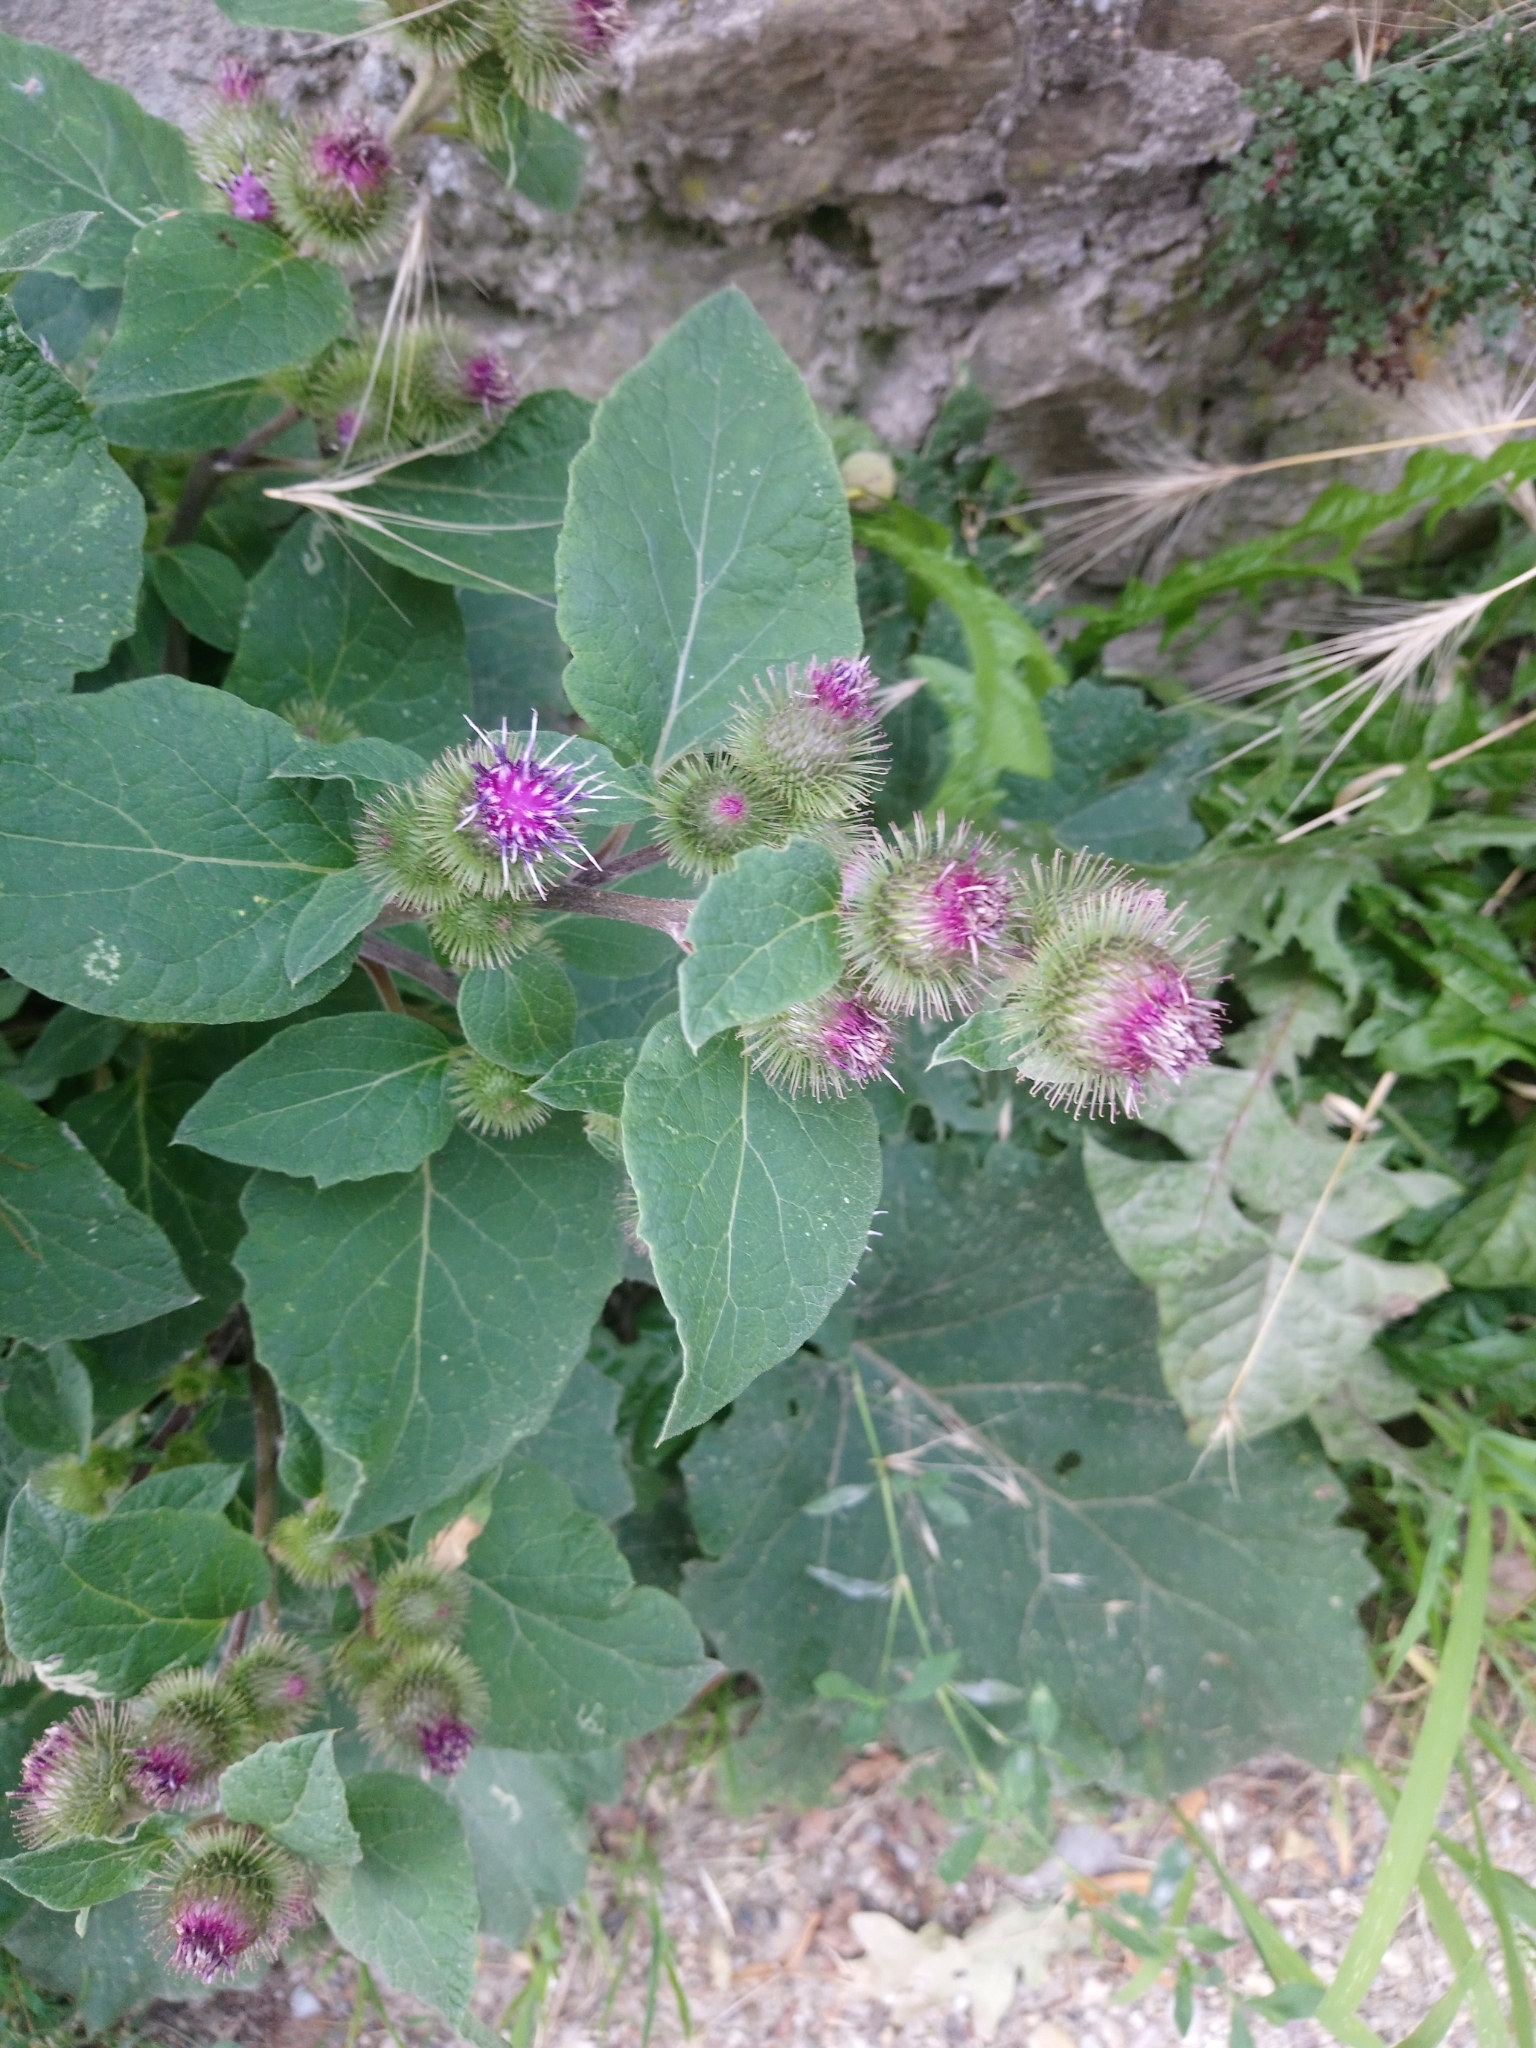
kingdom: Plantae
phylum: Tracheophyta
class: Magnoliopsida
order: Asterales
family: Asteraceae
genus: Arctium
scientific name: Arctium minus
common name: Lesser burdock
